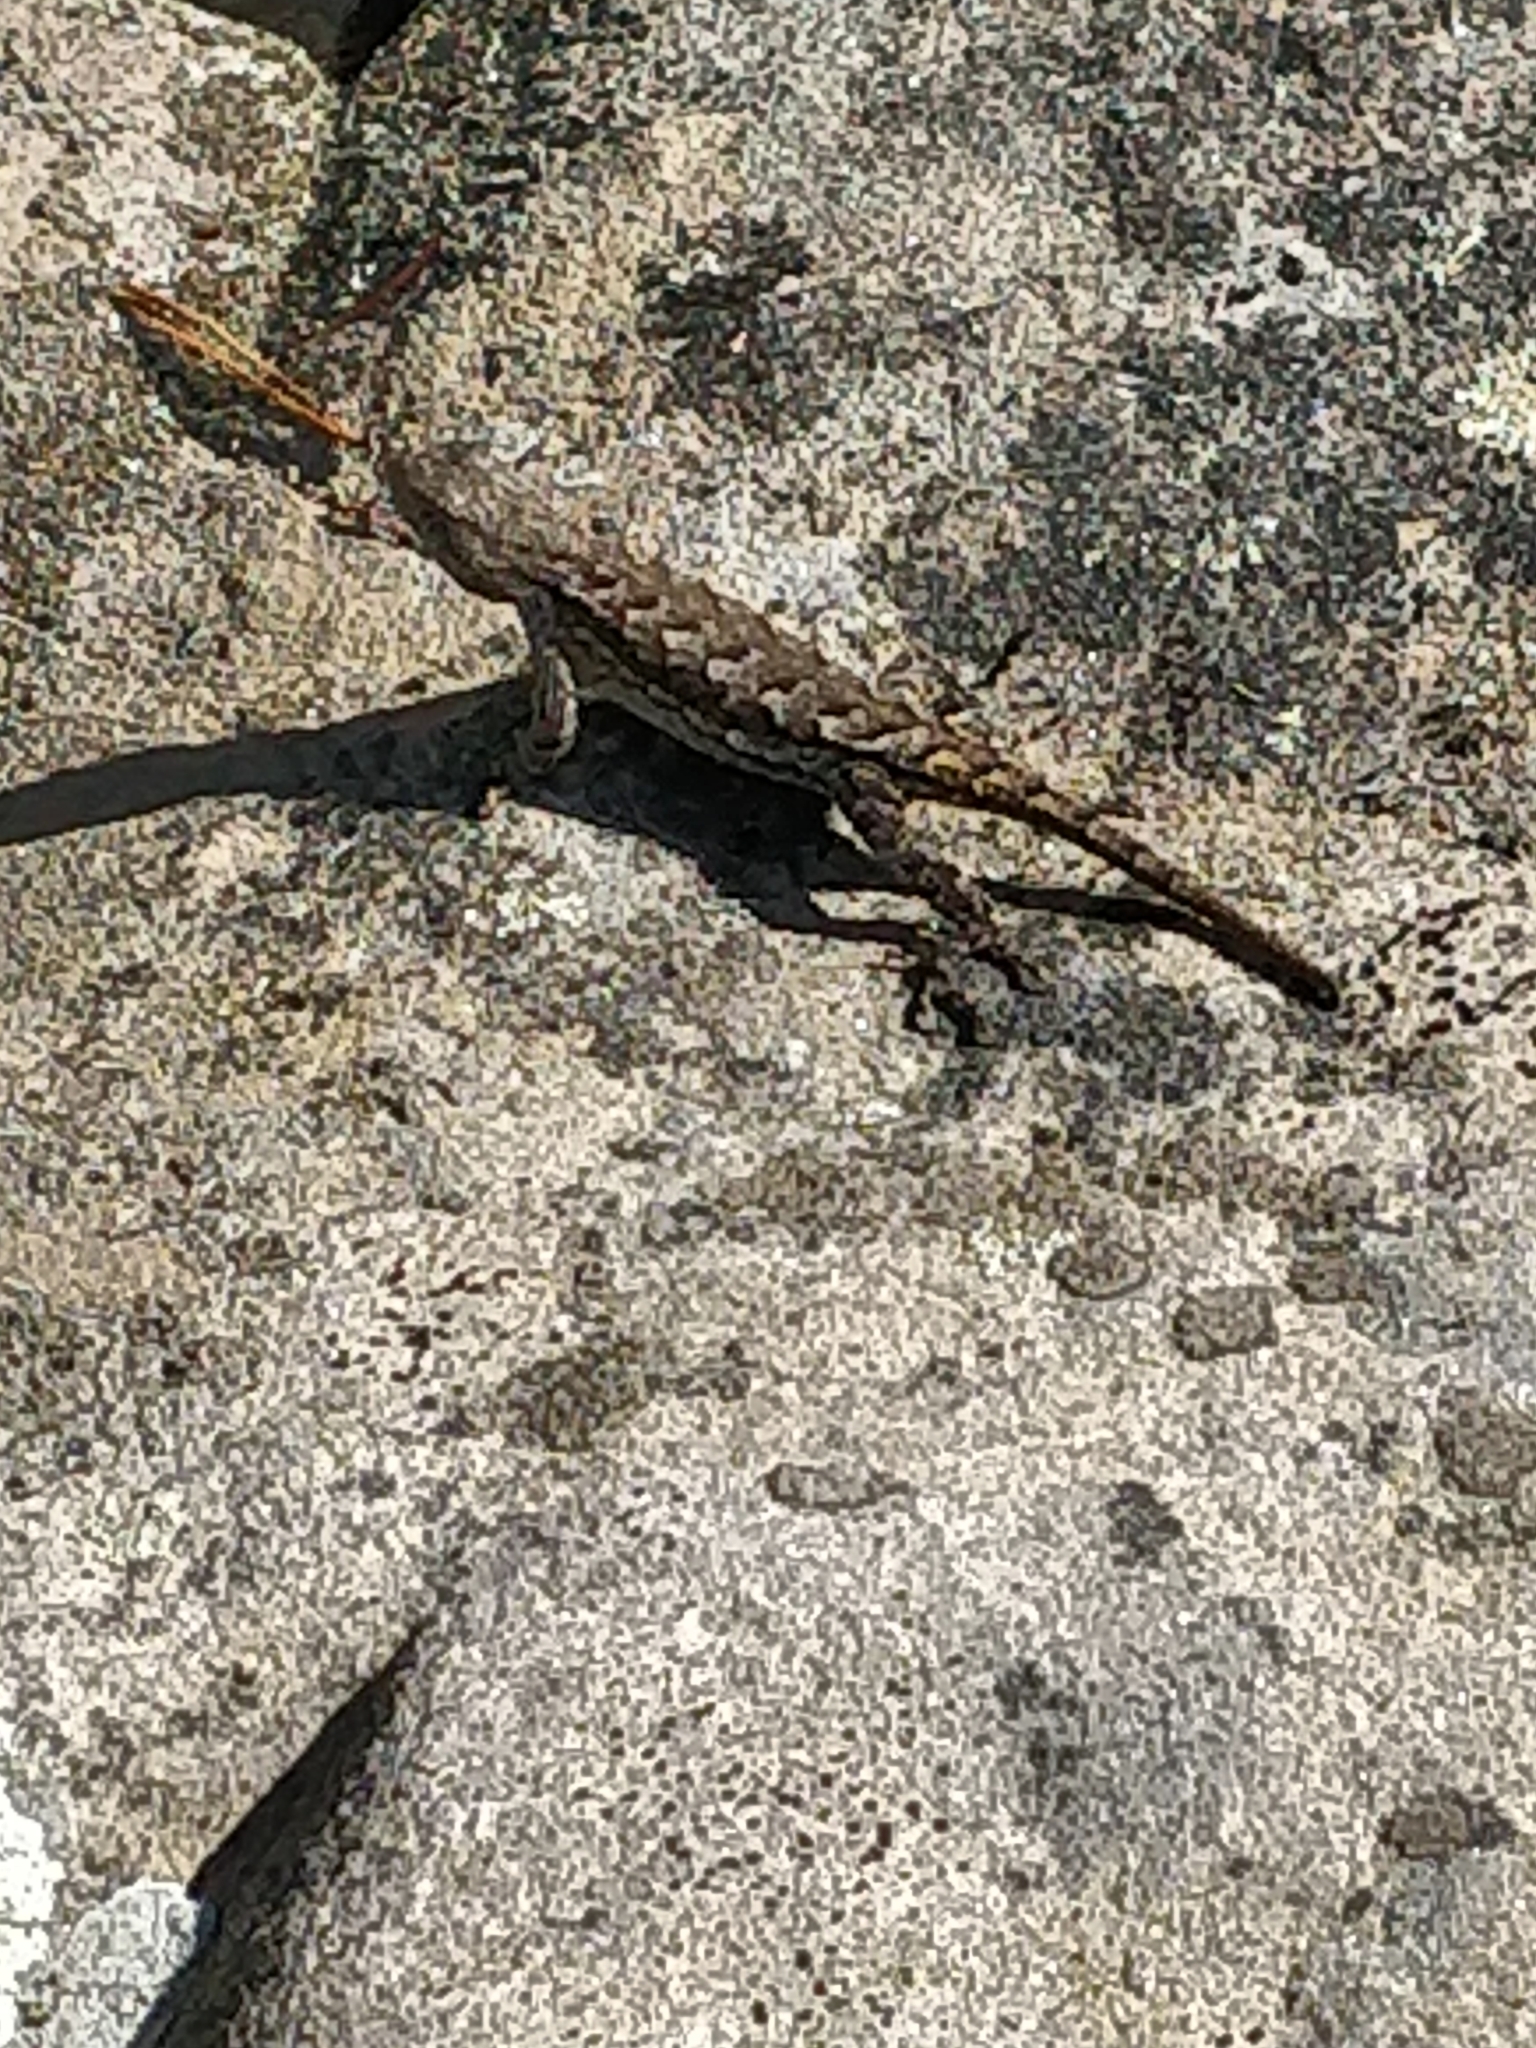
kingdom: Animalia
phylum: Chordata
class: Squamata
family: Phrynosomatidae
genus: Sceloporus
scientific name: Sceloporus undulatus
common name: Eastern fence lizard
